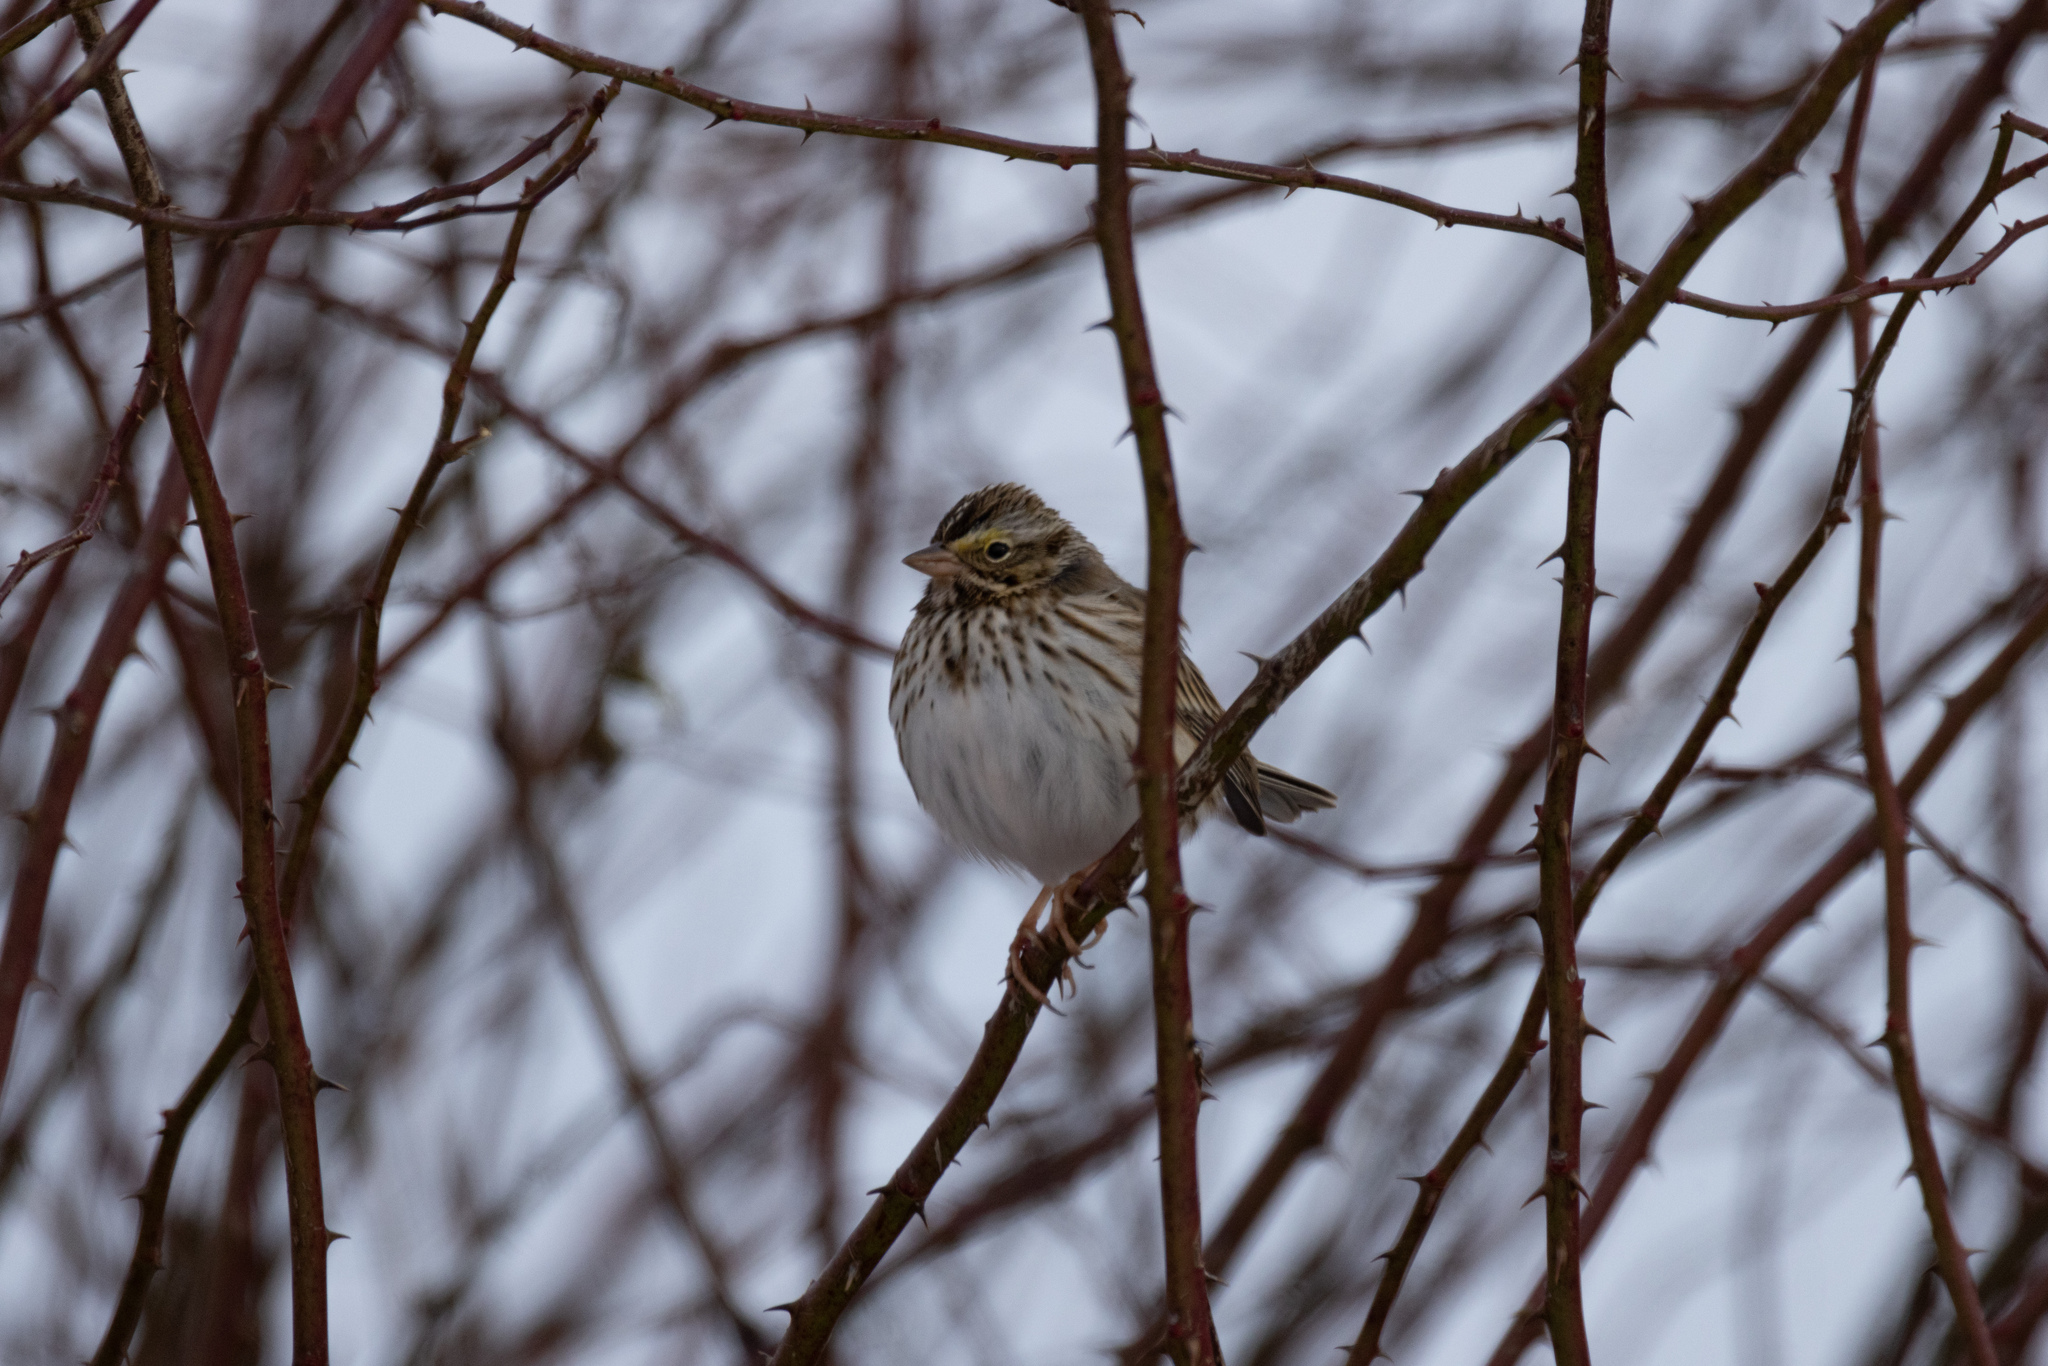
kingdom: Animalia
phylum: Chordata
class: Aves
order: Passeriformes
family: Passerellidae
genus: Passerculus
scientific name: Passerculus sandwichensis
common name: Savannah sparrow
